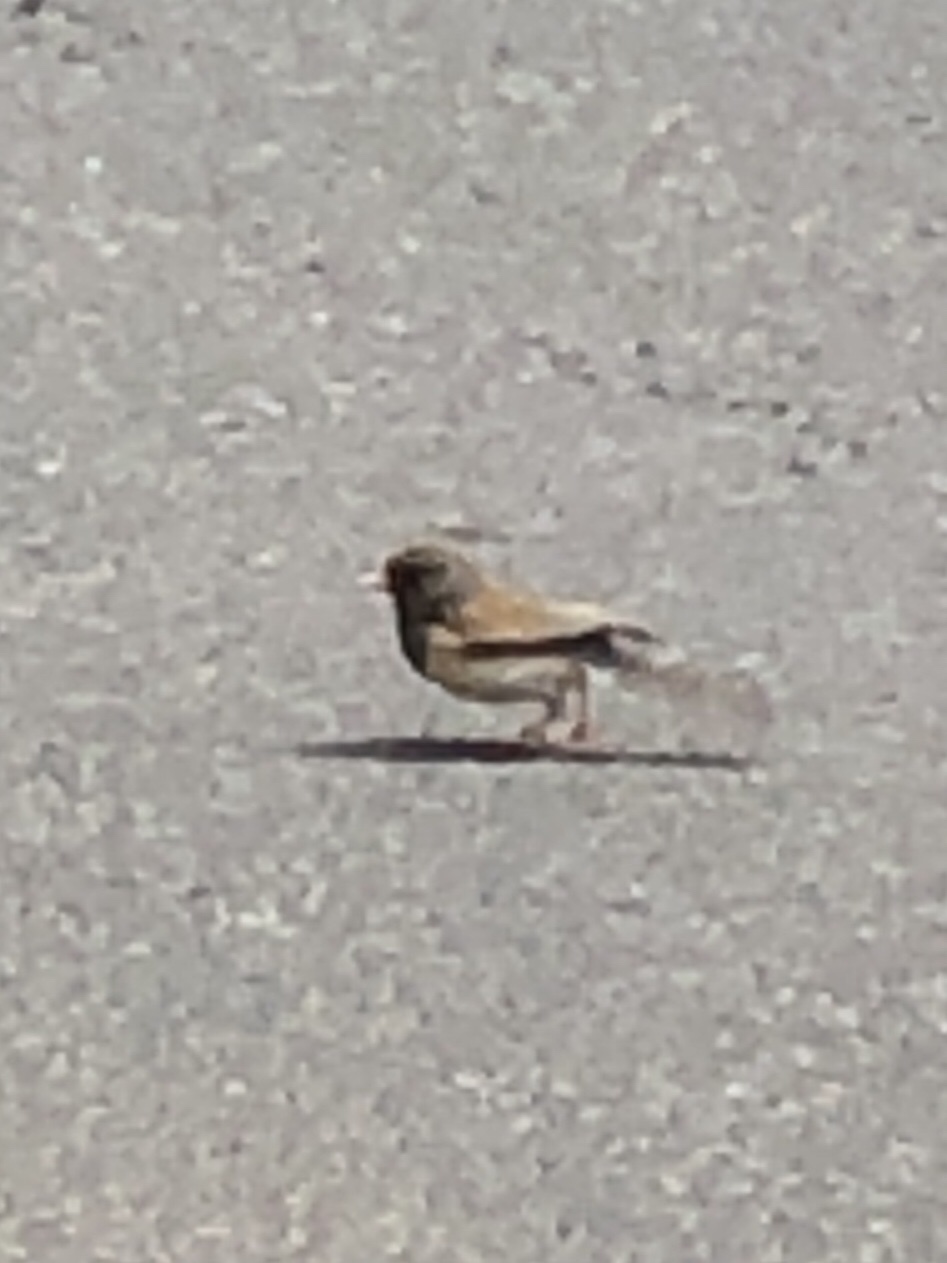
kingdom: Animalia
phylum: Chordata
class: Aves
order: Passeriformes
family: Passerellidae
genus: Junco
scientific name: Junco hyemalis
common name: Dark-eyed junco
